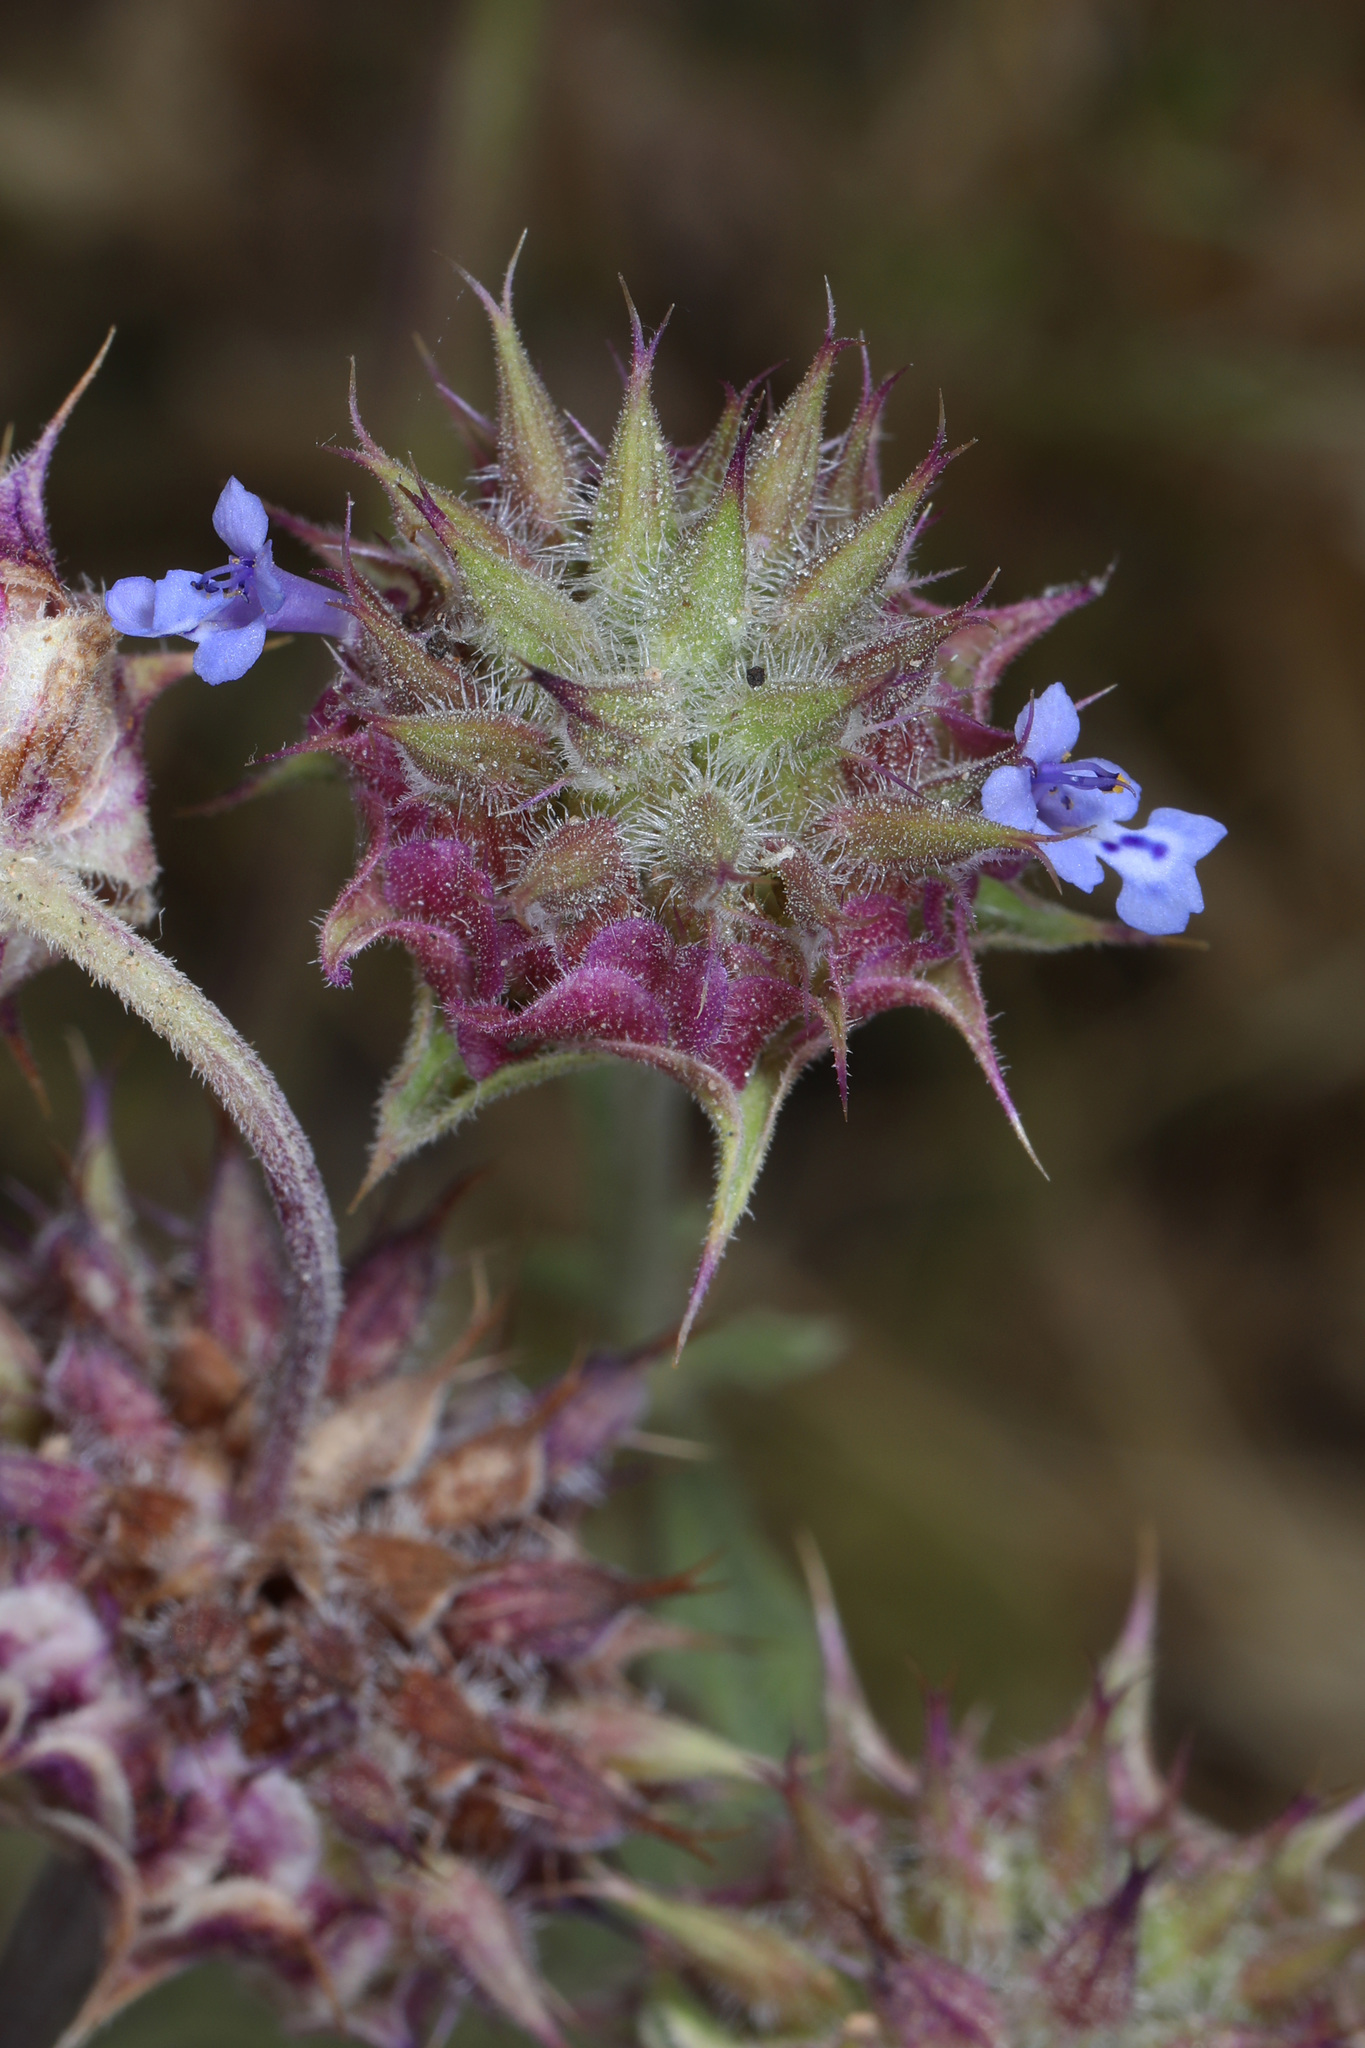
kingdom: Plantae
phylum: Tracheophyta
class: Magnoliopsida
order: Lamiales
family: Lamiaceae
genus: Salvia
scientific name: Salvia columbariae
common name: Chia
